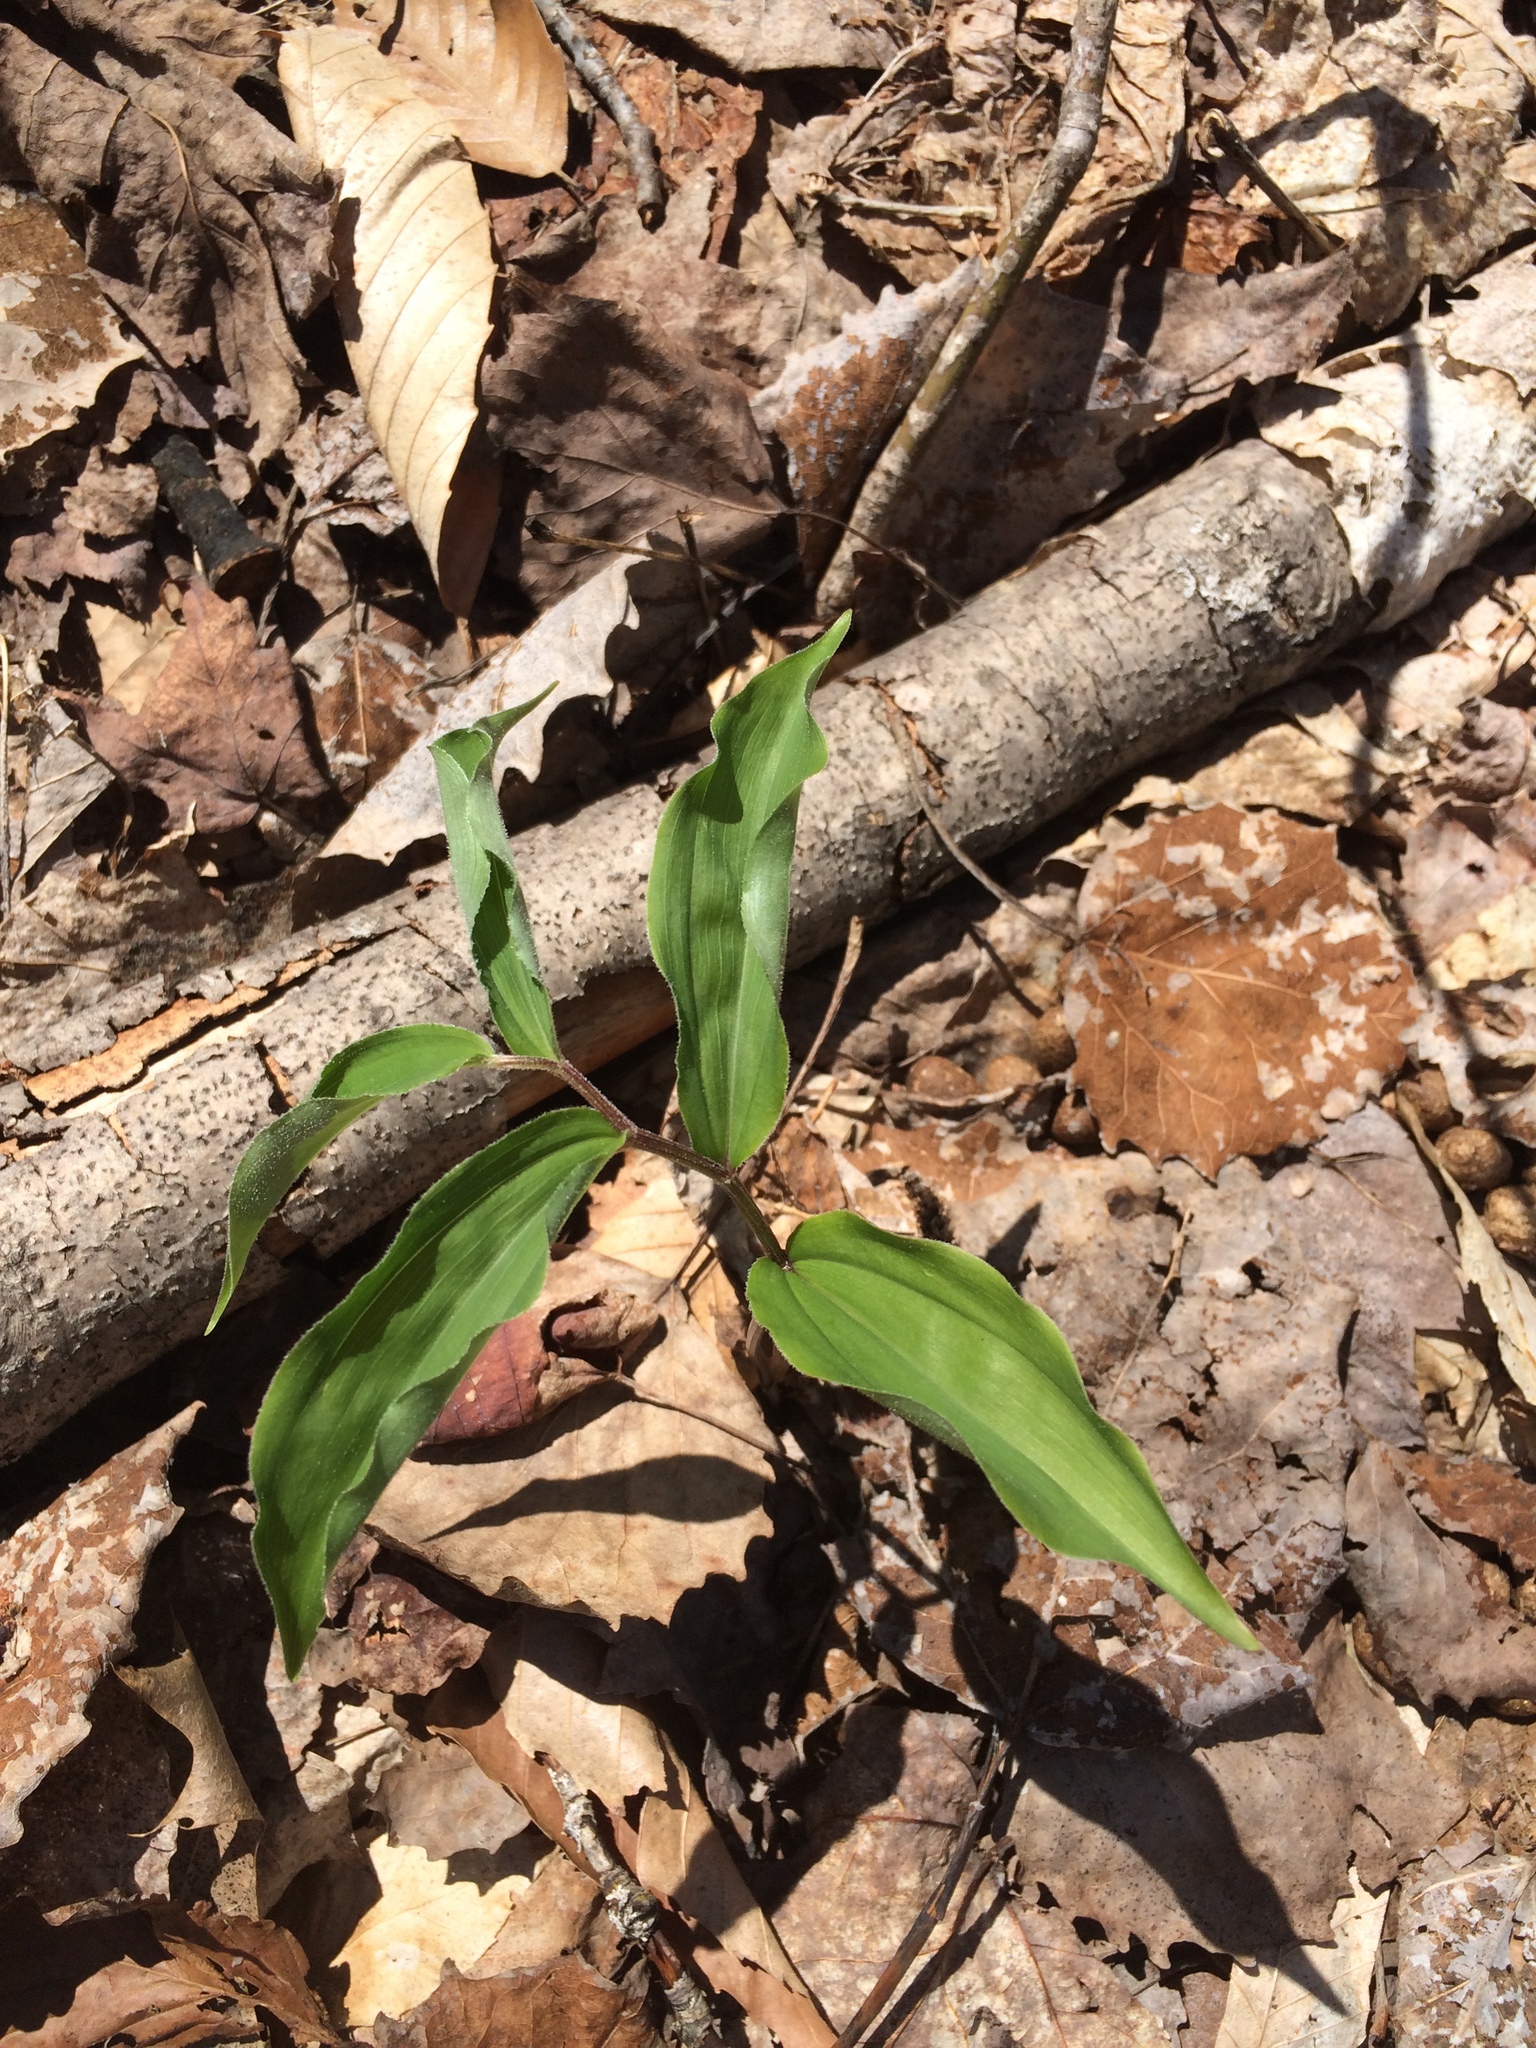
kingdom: Plantae
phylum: Tracheophyta
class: Liliopsida
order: Asparagales
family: Asparagaceae
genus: Maianthemum
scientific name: Maianthemum racemosum
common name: False spikenard
